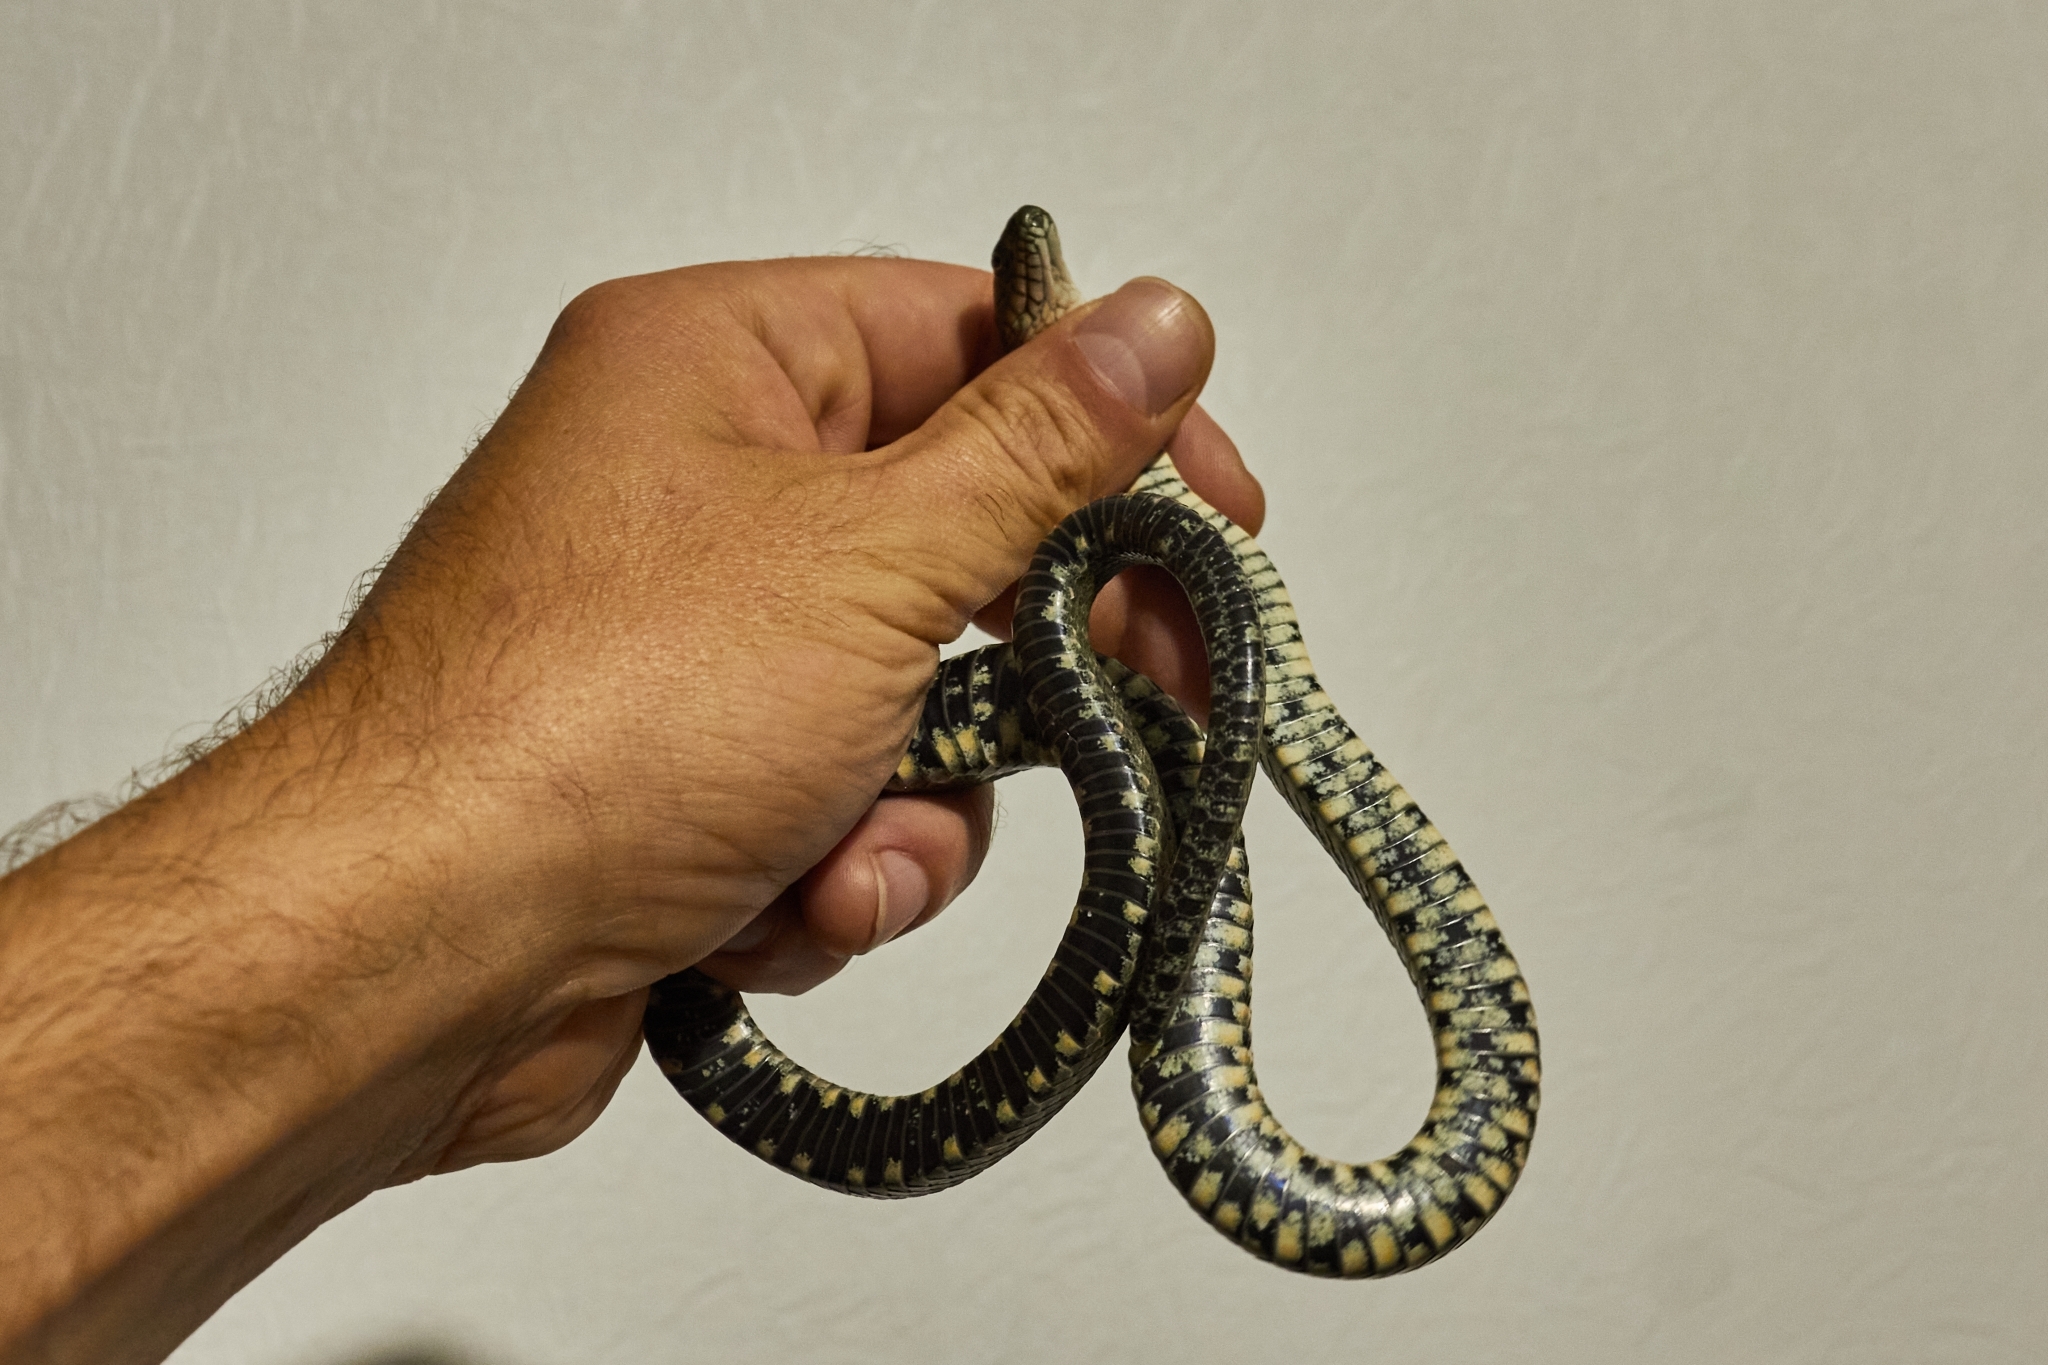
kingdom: Animalia
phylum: Chordata
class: Squamata
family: Colubridae
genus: Natrix
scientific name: Natrix tessellata
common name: Dice snake
